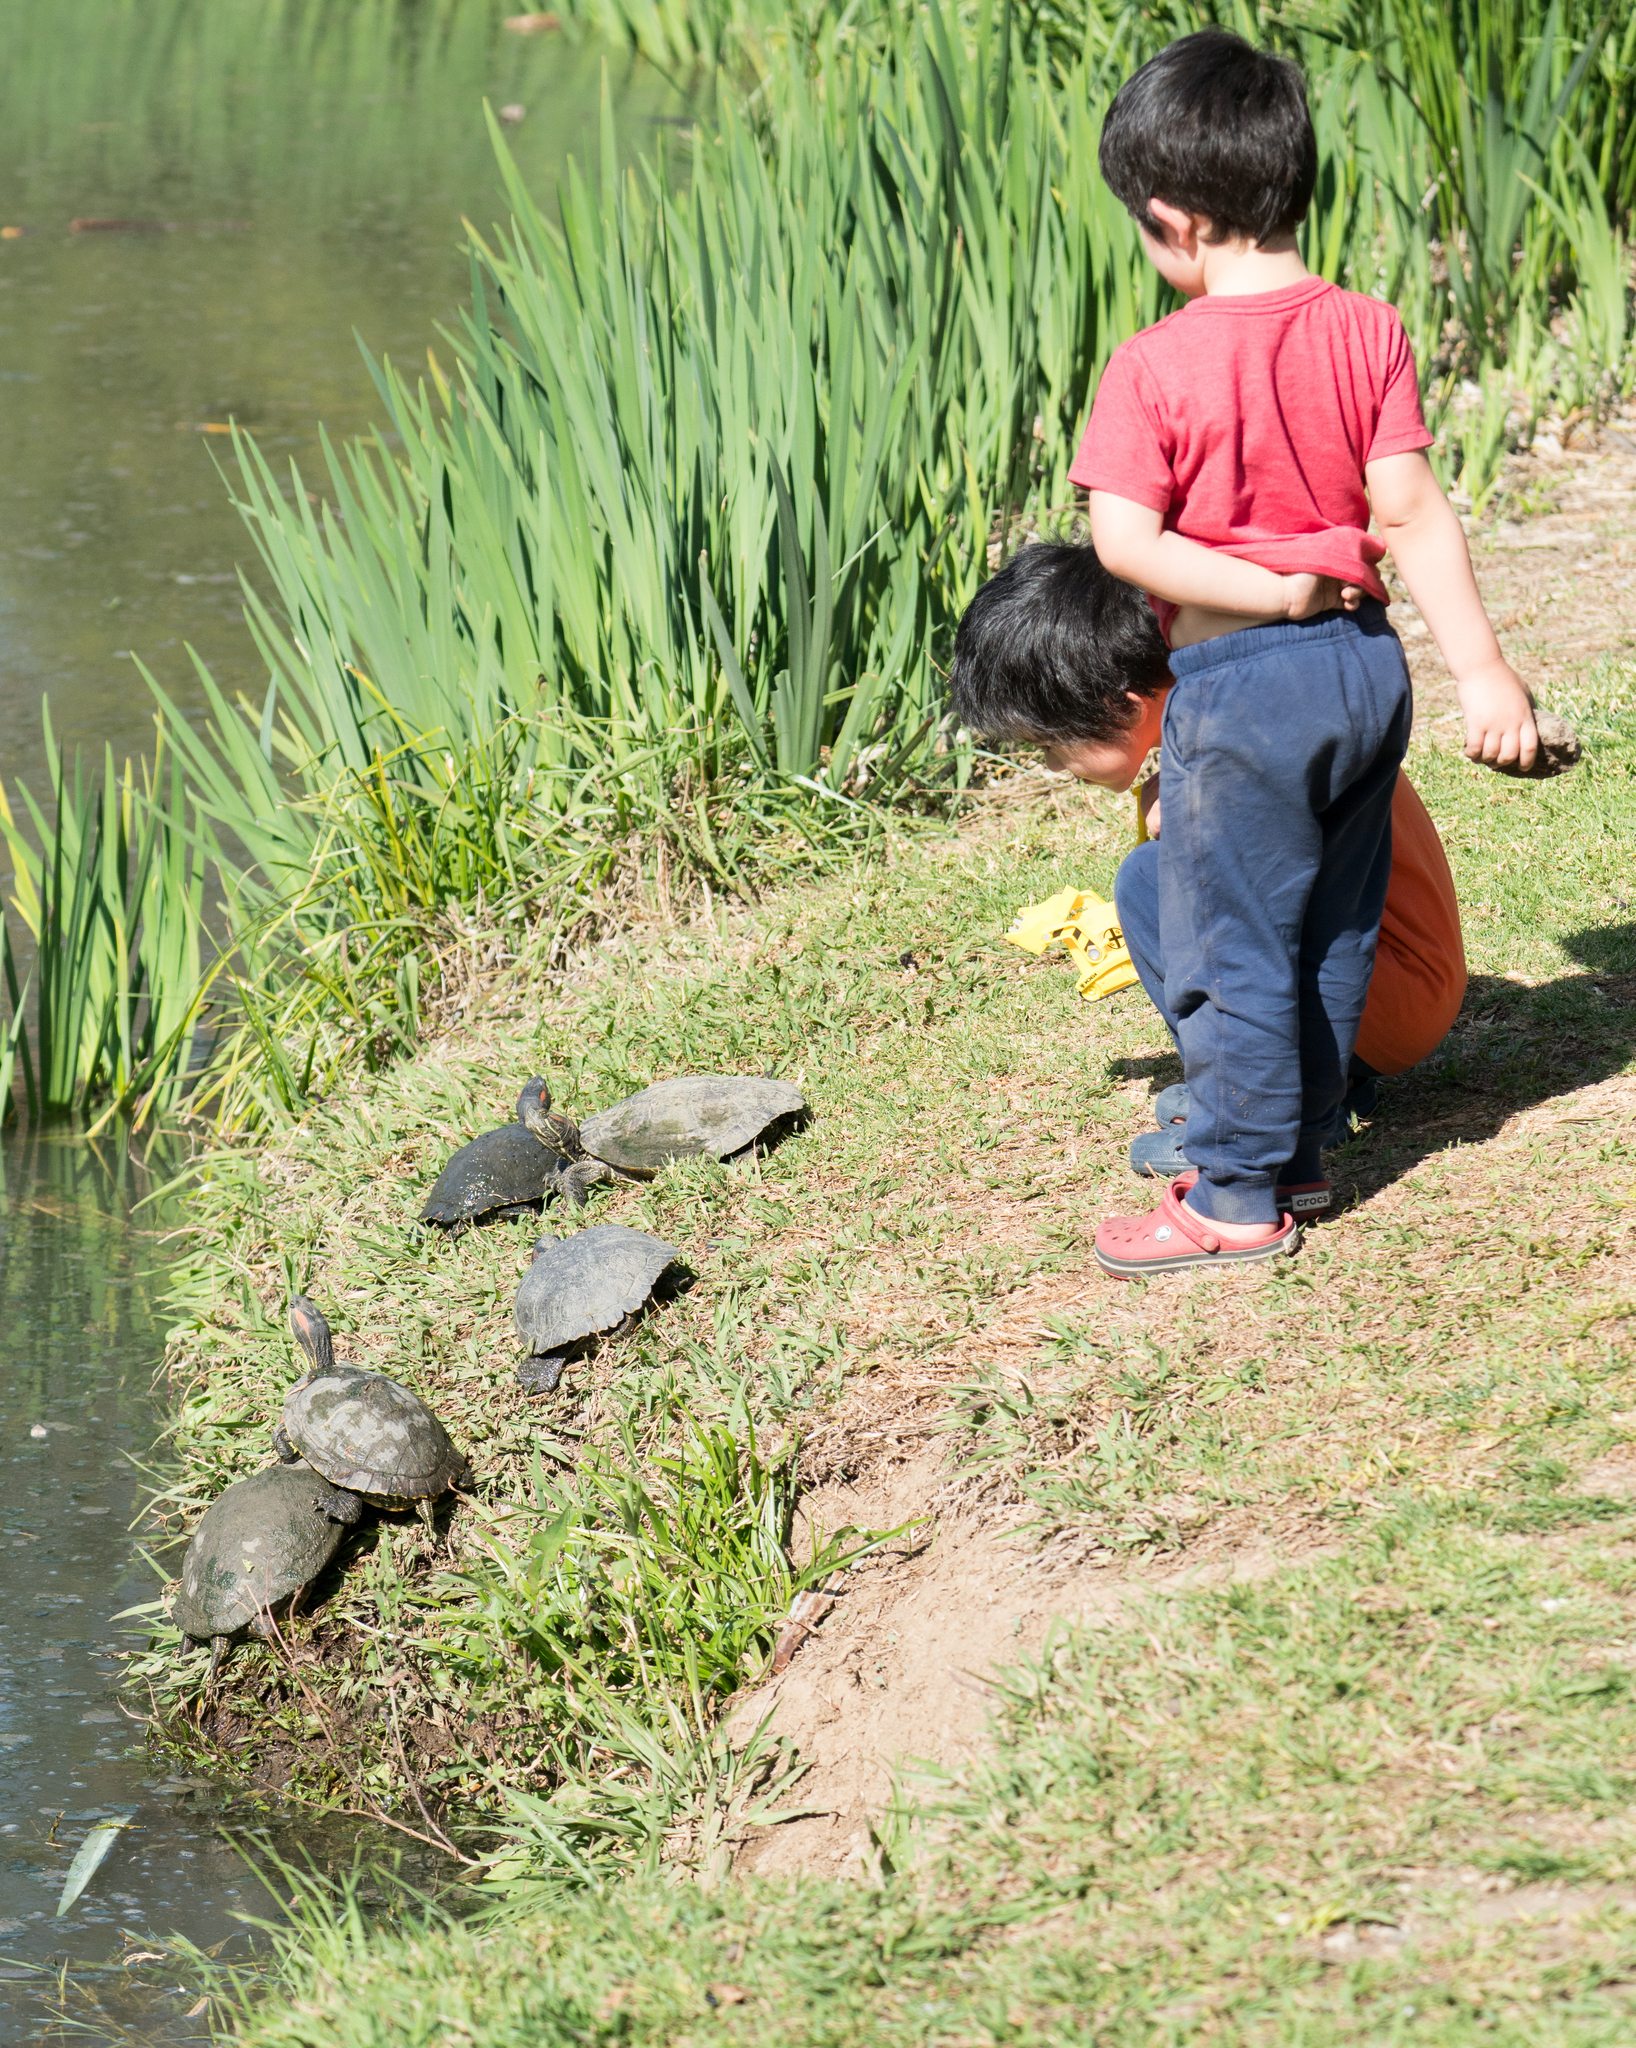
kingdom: Animalia
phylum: Chordata
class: Testudines
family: Emydidae
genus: Trachemys
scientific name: Trachemys scripta
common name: Slider
